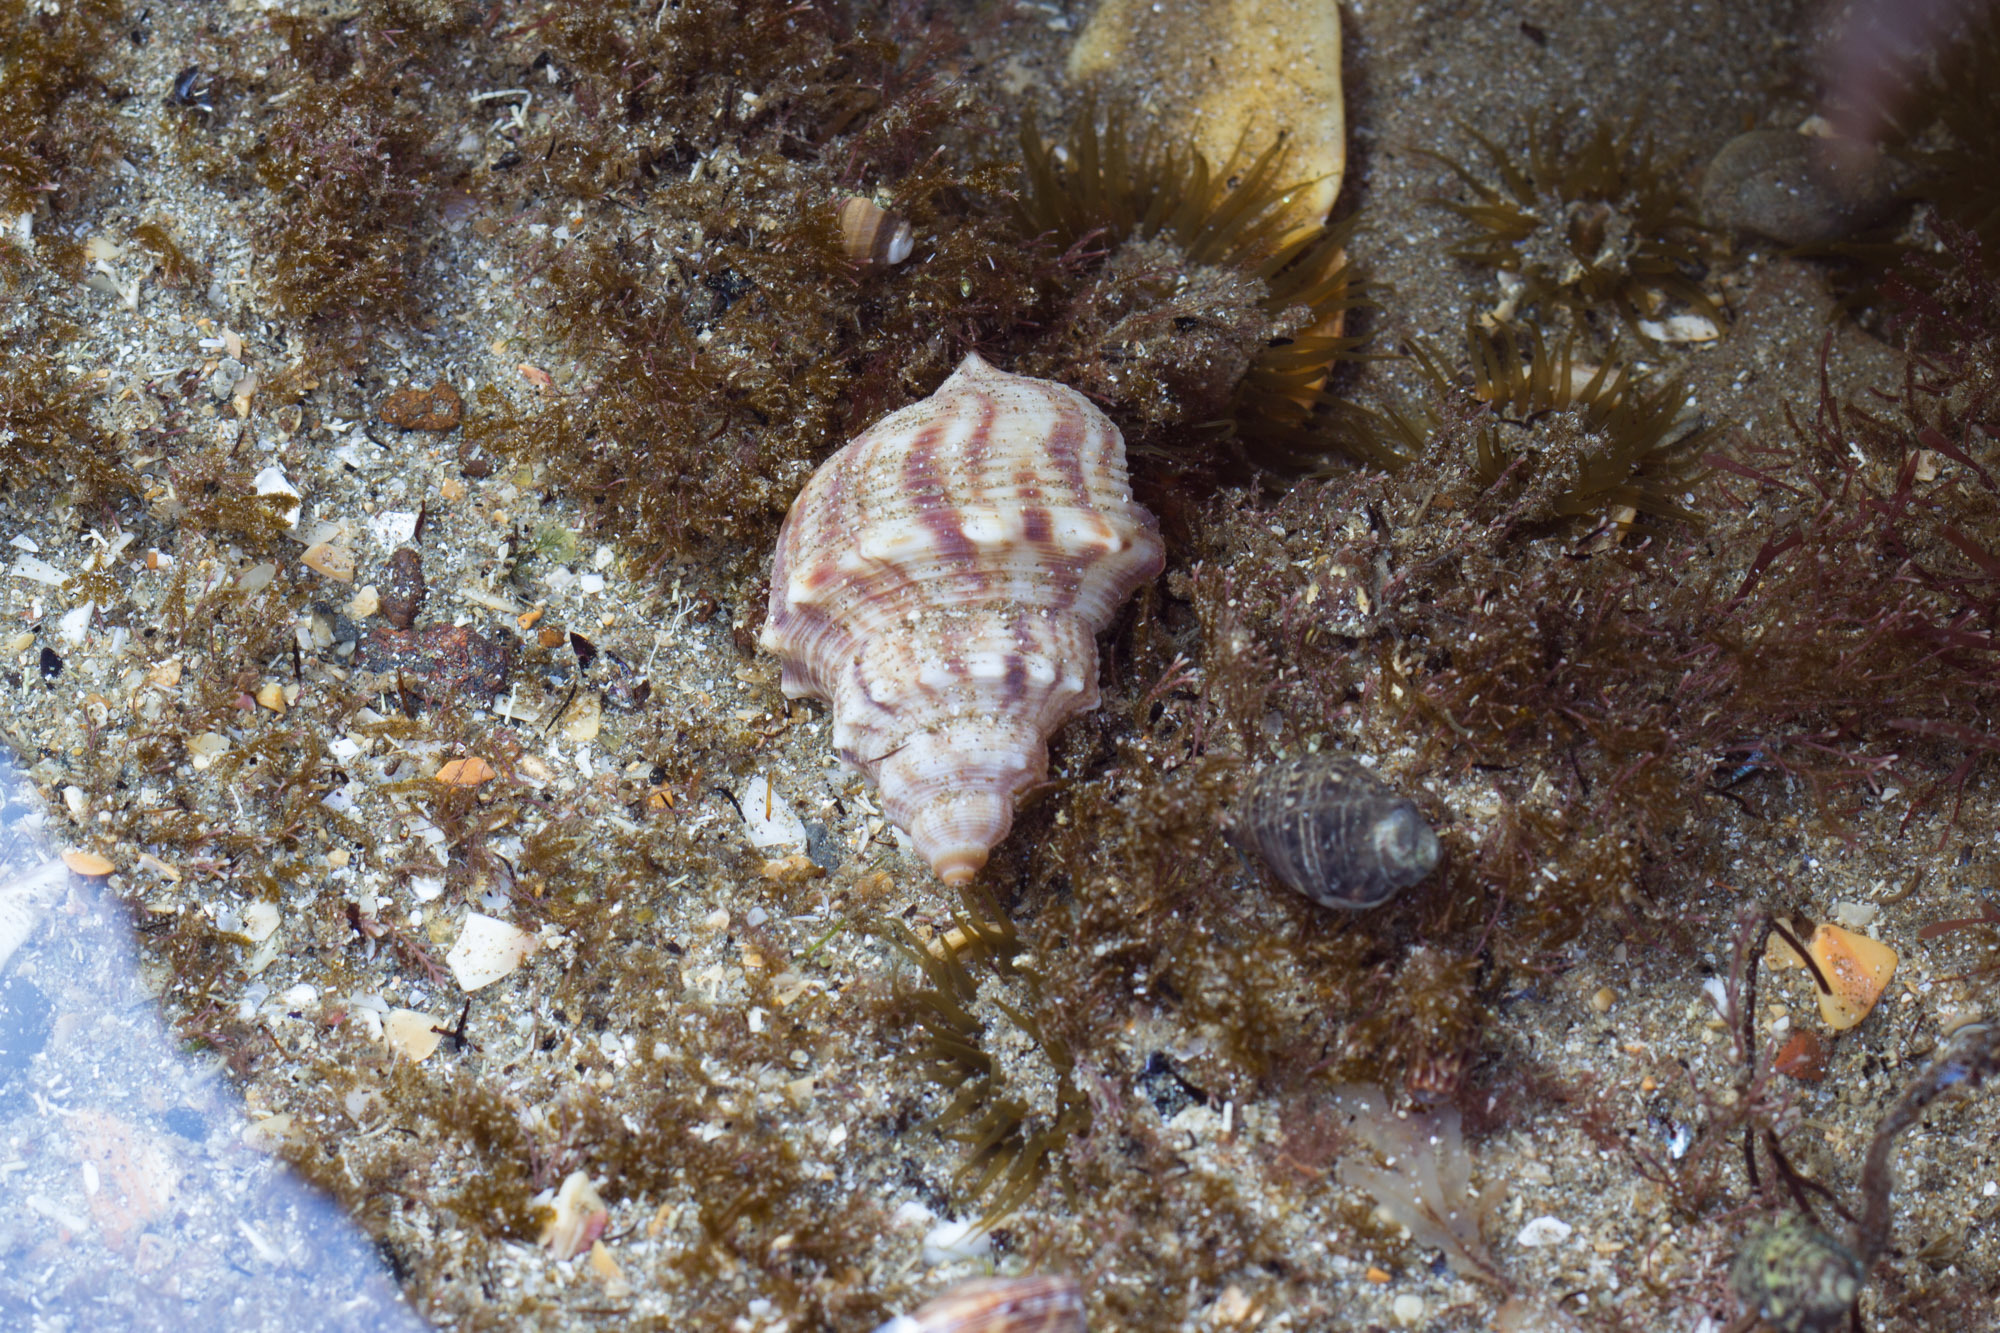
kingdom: Animalia
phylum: Mollusca
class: Gastropoda
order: Littorinimorpha
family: Struthiolariidae
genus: Struthiolaria
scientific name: Struthiolaria papulosa
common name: Large ostrich foot
